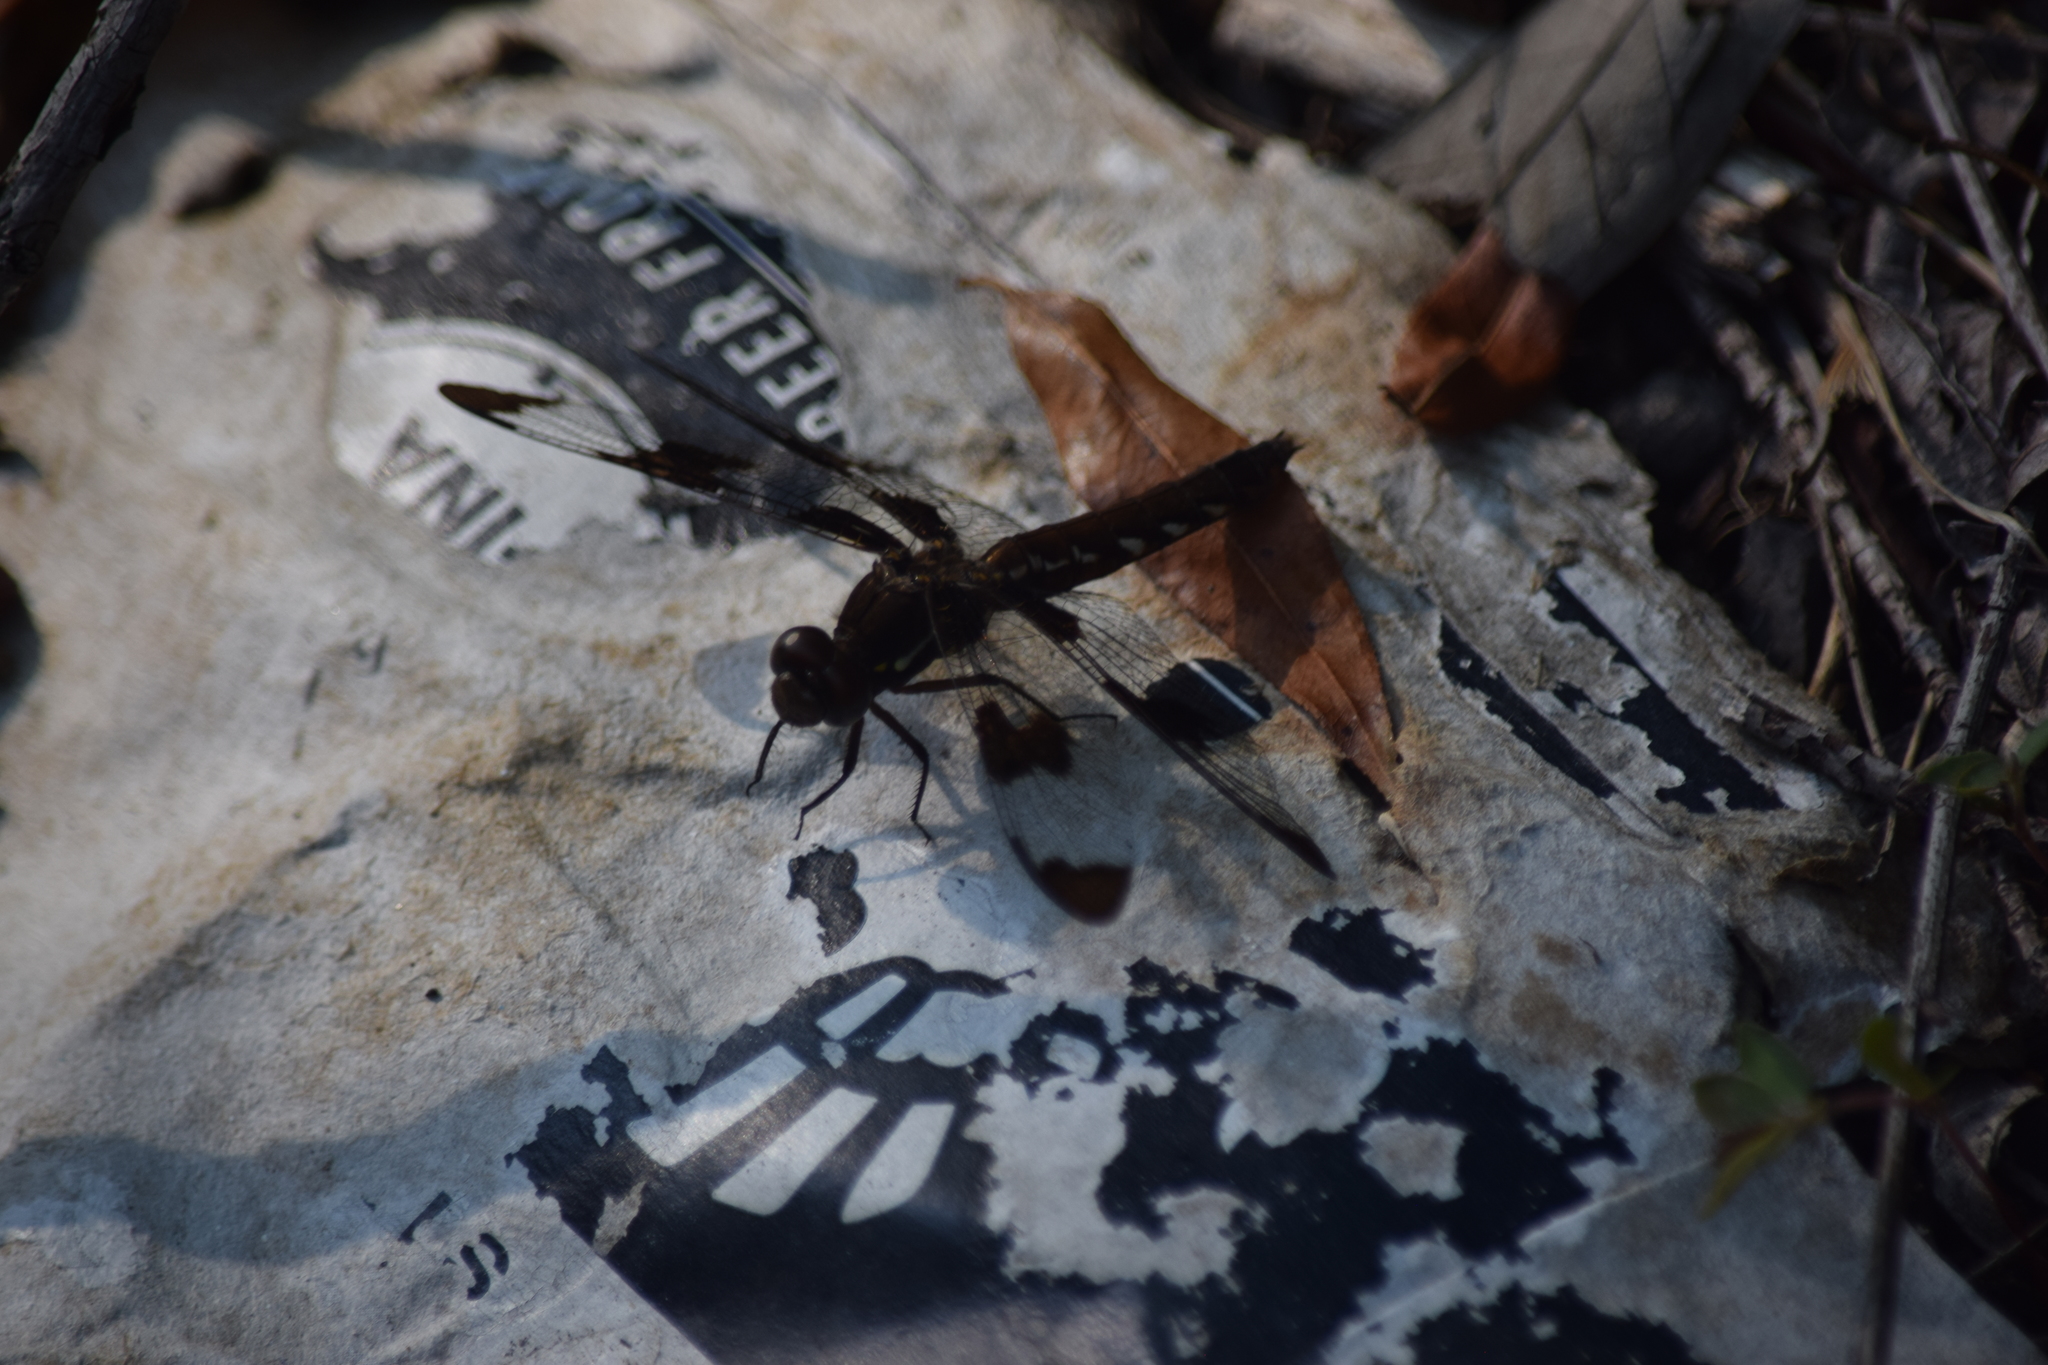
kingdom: Animalia
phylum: Arthropoda
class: Insecta
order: Odonata
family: Libellulidae
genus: Plathemis
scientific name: Plathemis lydia
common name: Common whitetail
